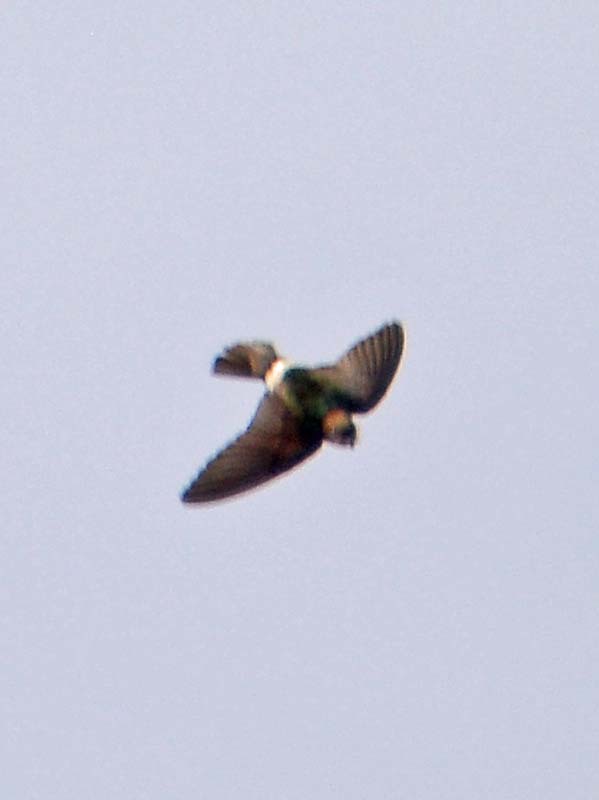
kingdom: Animalia
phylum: Chordata
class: Aves
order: Passeriformes
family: Hirundinidae
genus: Petrochelidon
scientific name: Petrochelidon pyrrhonota
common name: American cliff swallow
